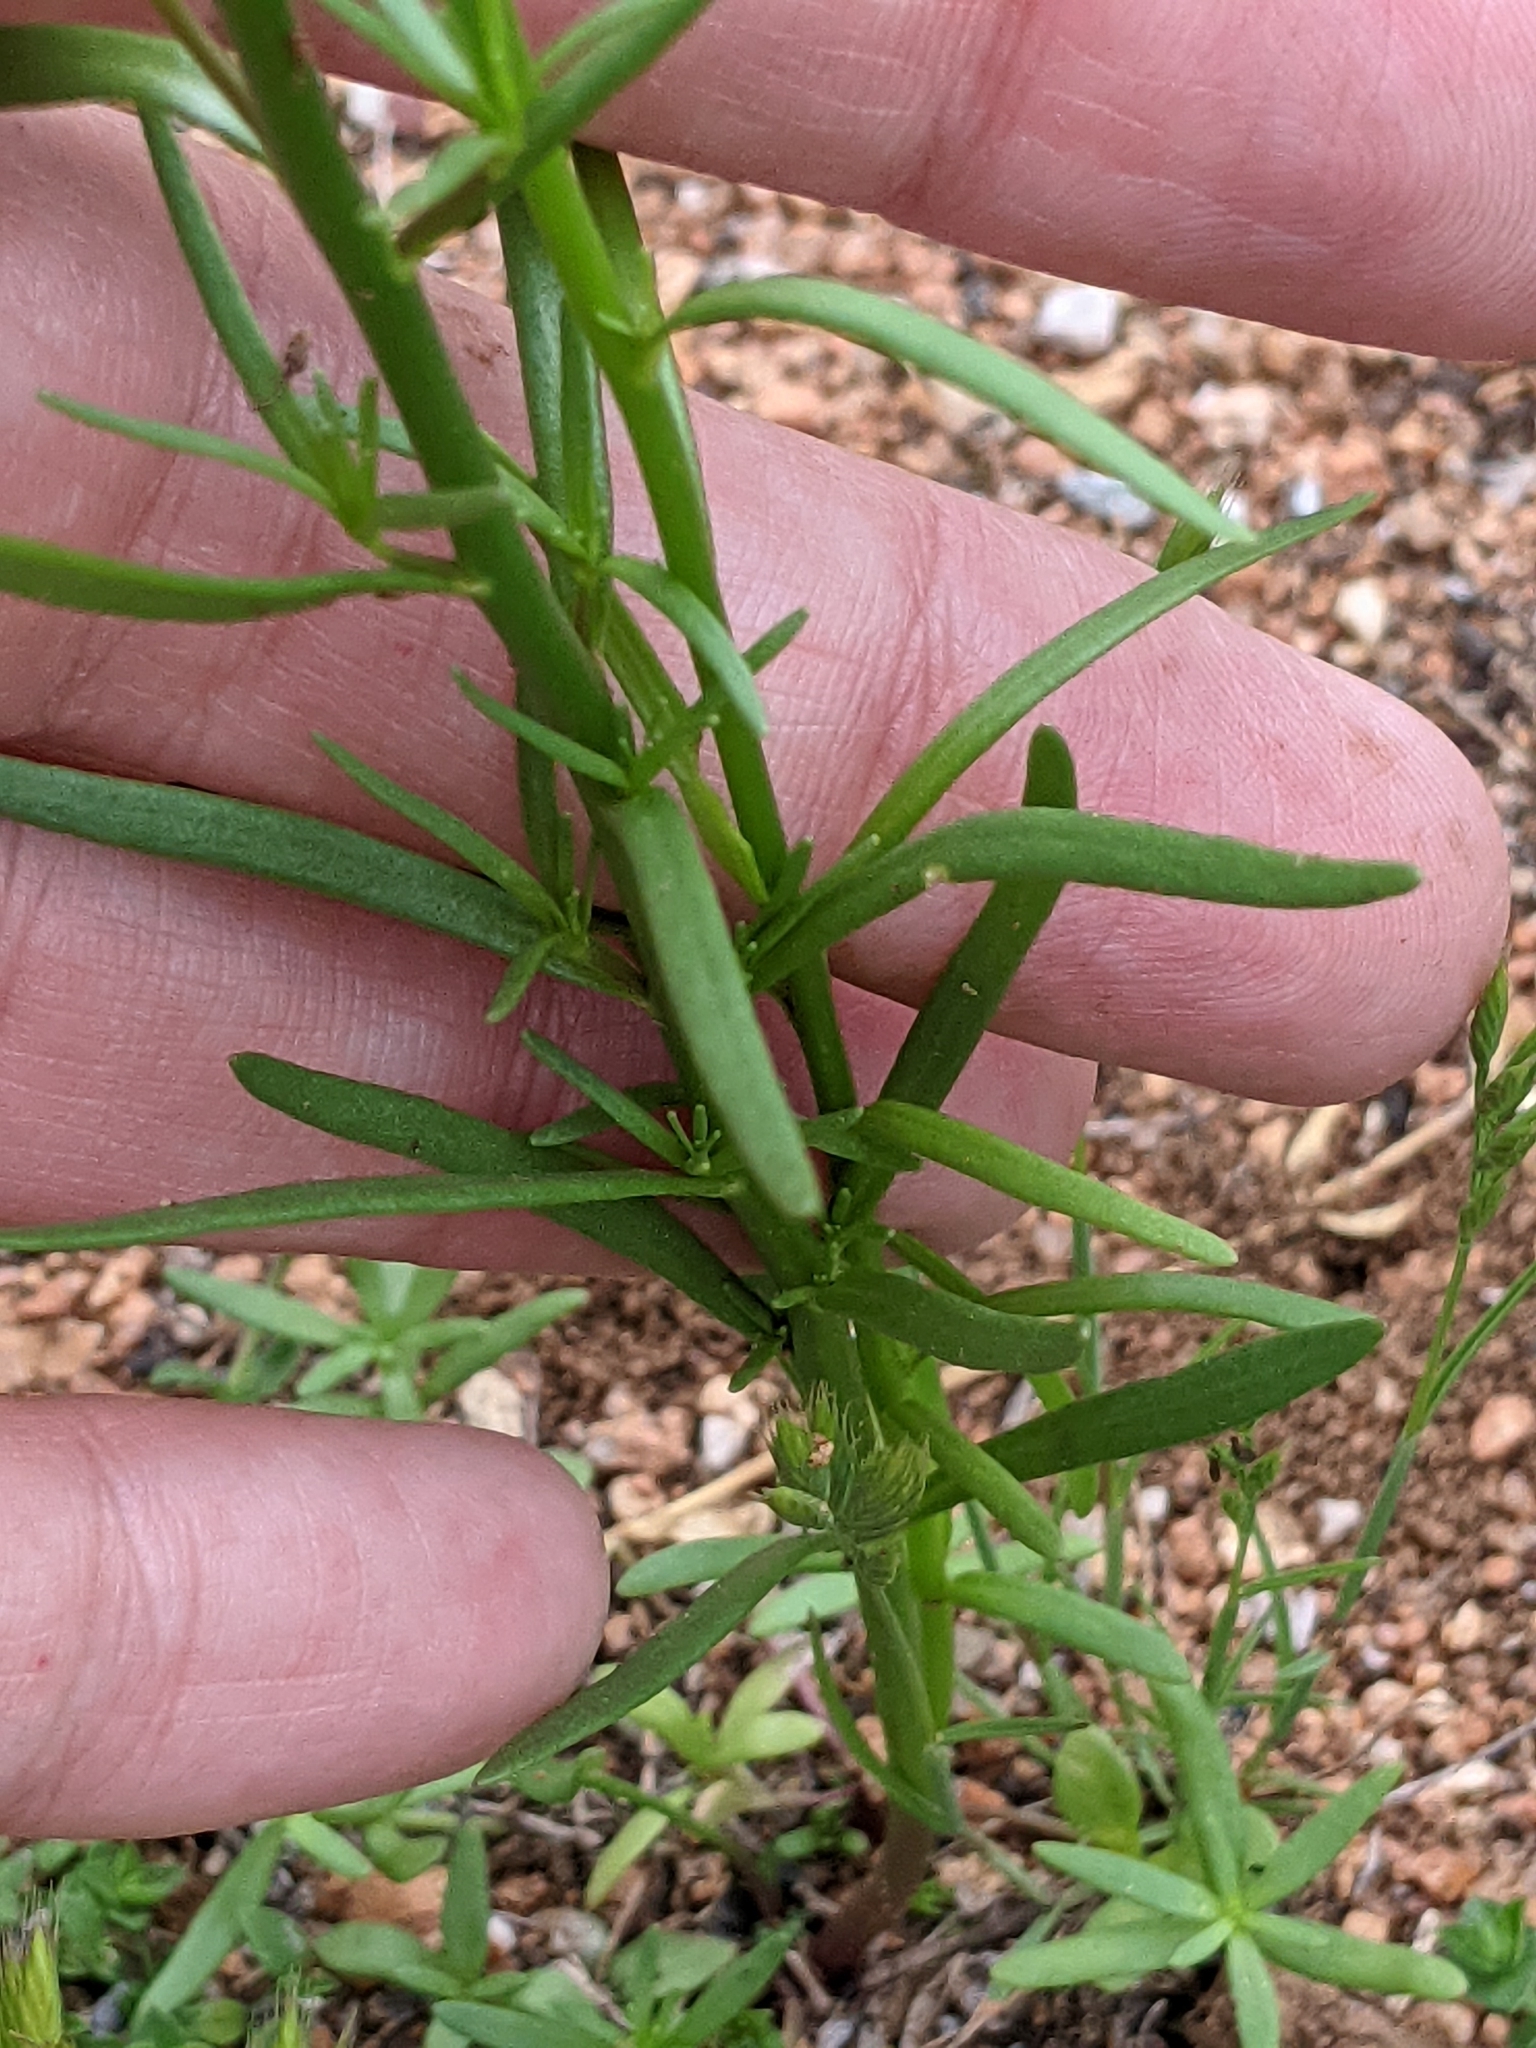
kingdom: Plantae
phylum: Tracheophyta
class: Magnoliopsida
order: Lamiales
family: Plantaginaceae
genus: Nuttallanthus
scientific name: Nuttallanthus texanus
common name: Texas toadflax
